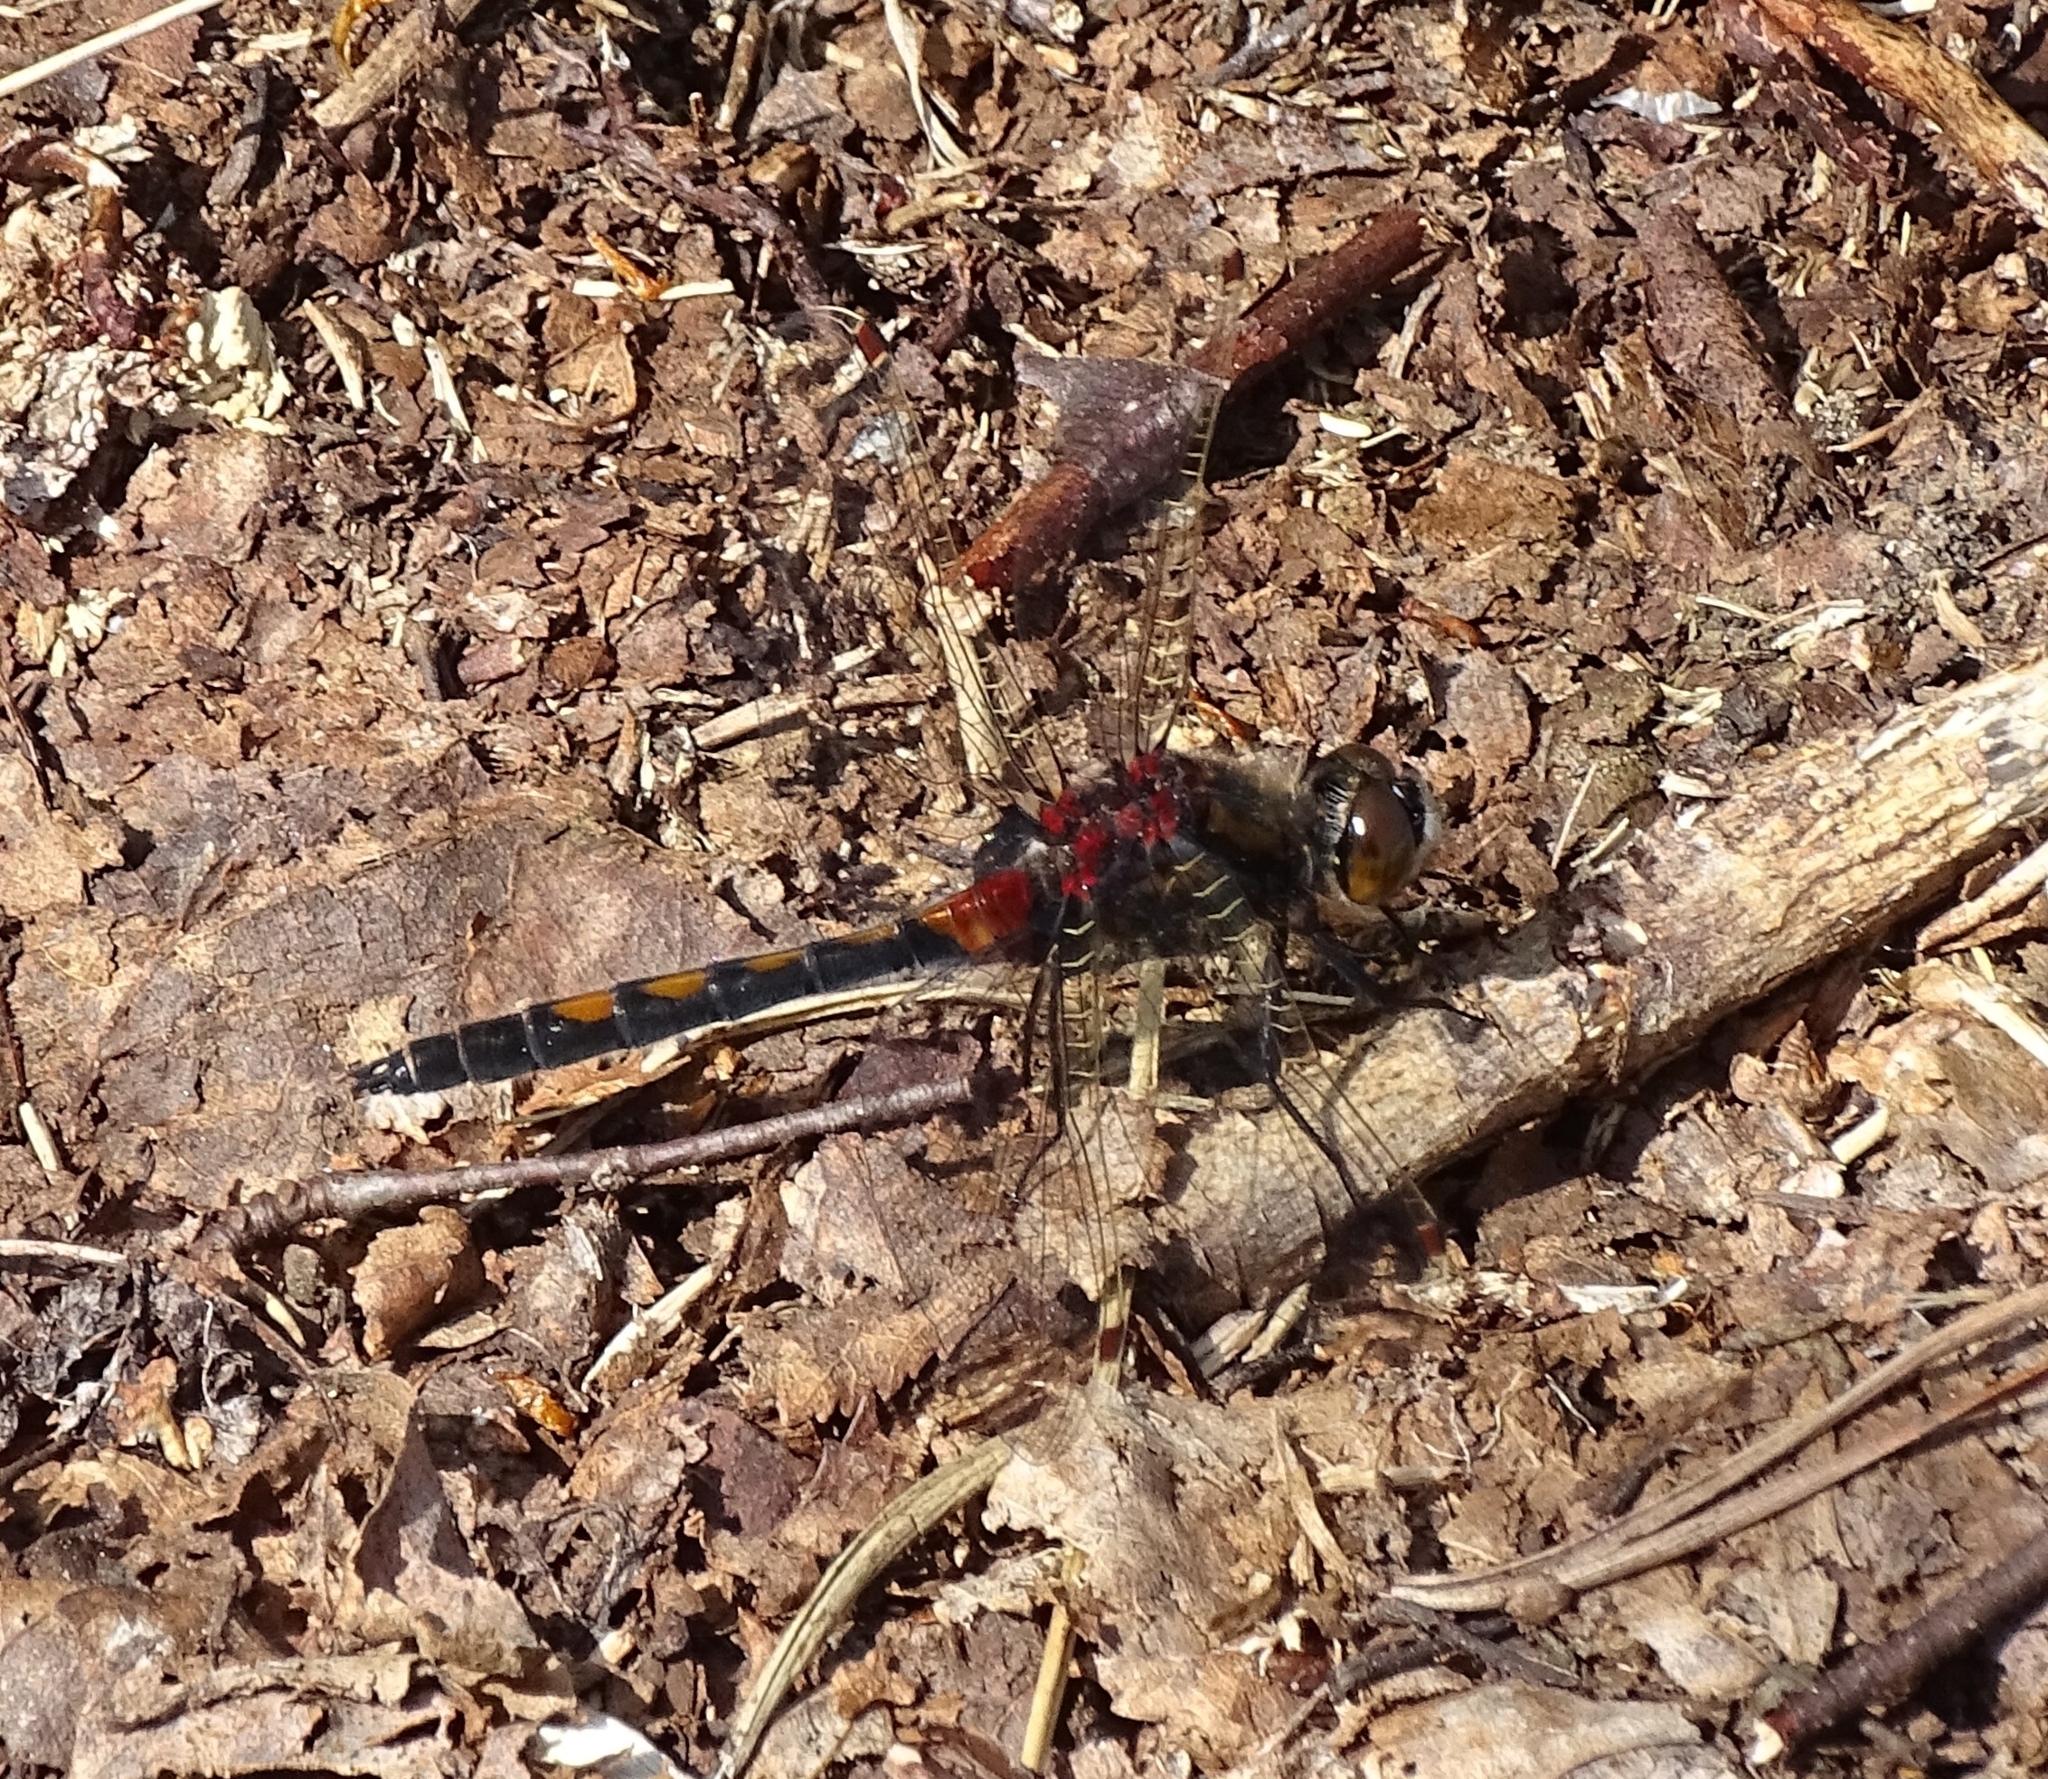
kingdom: Animalia
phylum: Arthropoda
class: Insecta
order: Odonata
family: Libellulidae
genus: Leucorrhinia
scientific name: Leucorrhinia rubicunda
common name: Ruby whiteface
